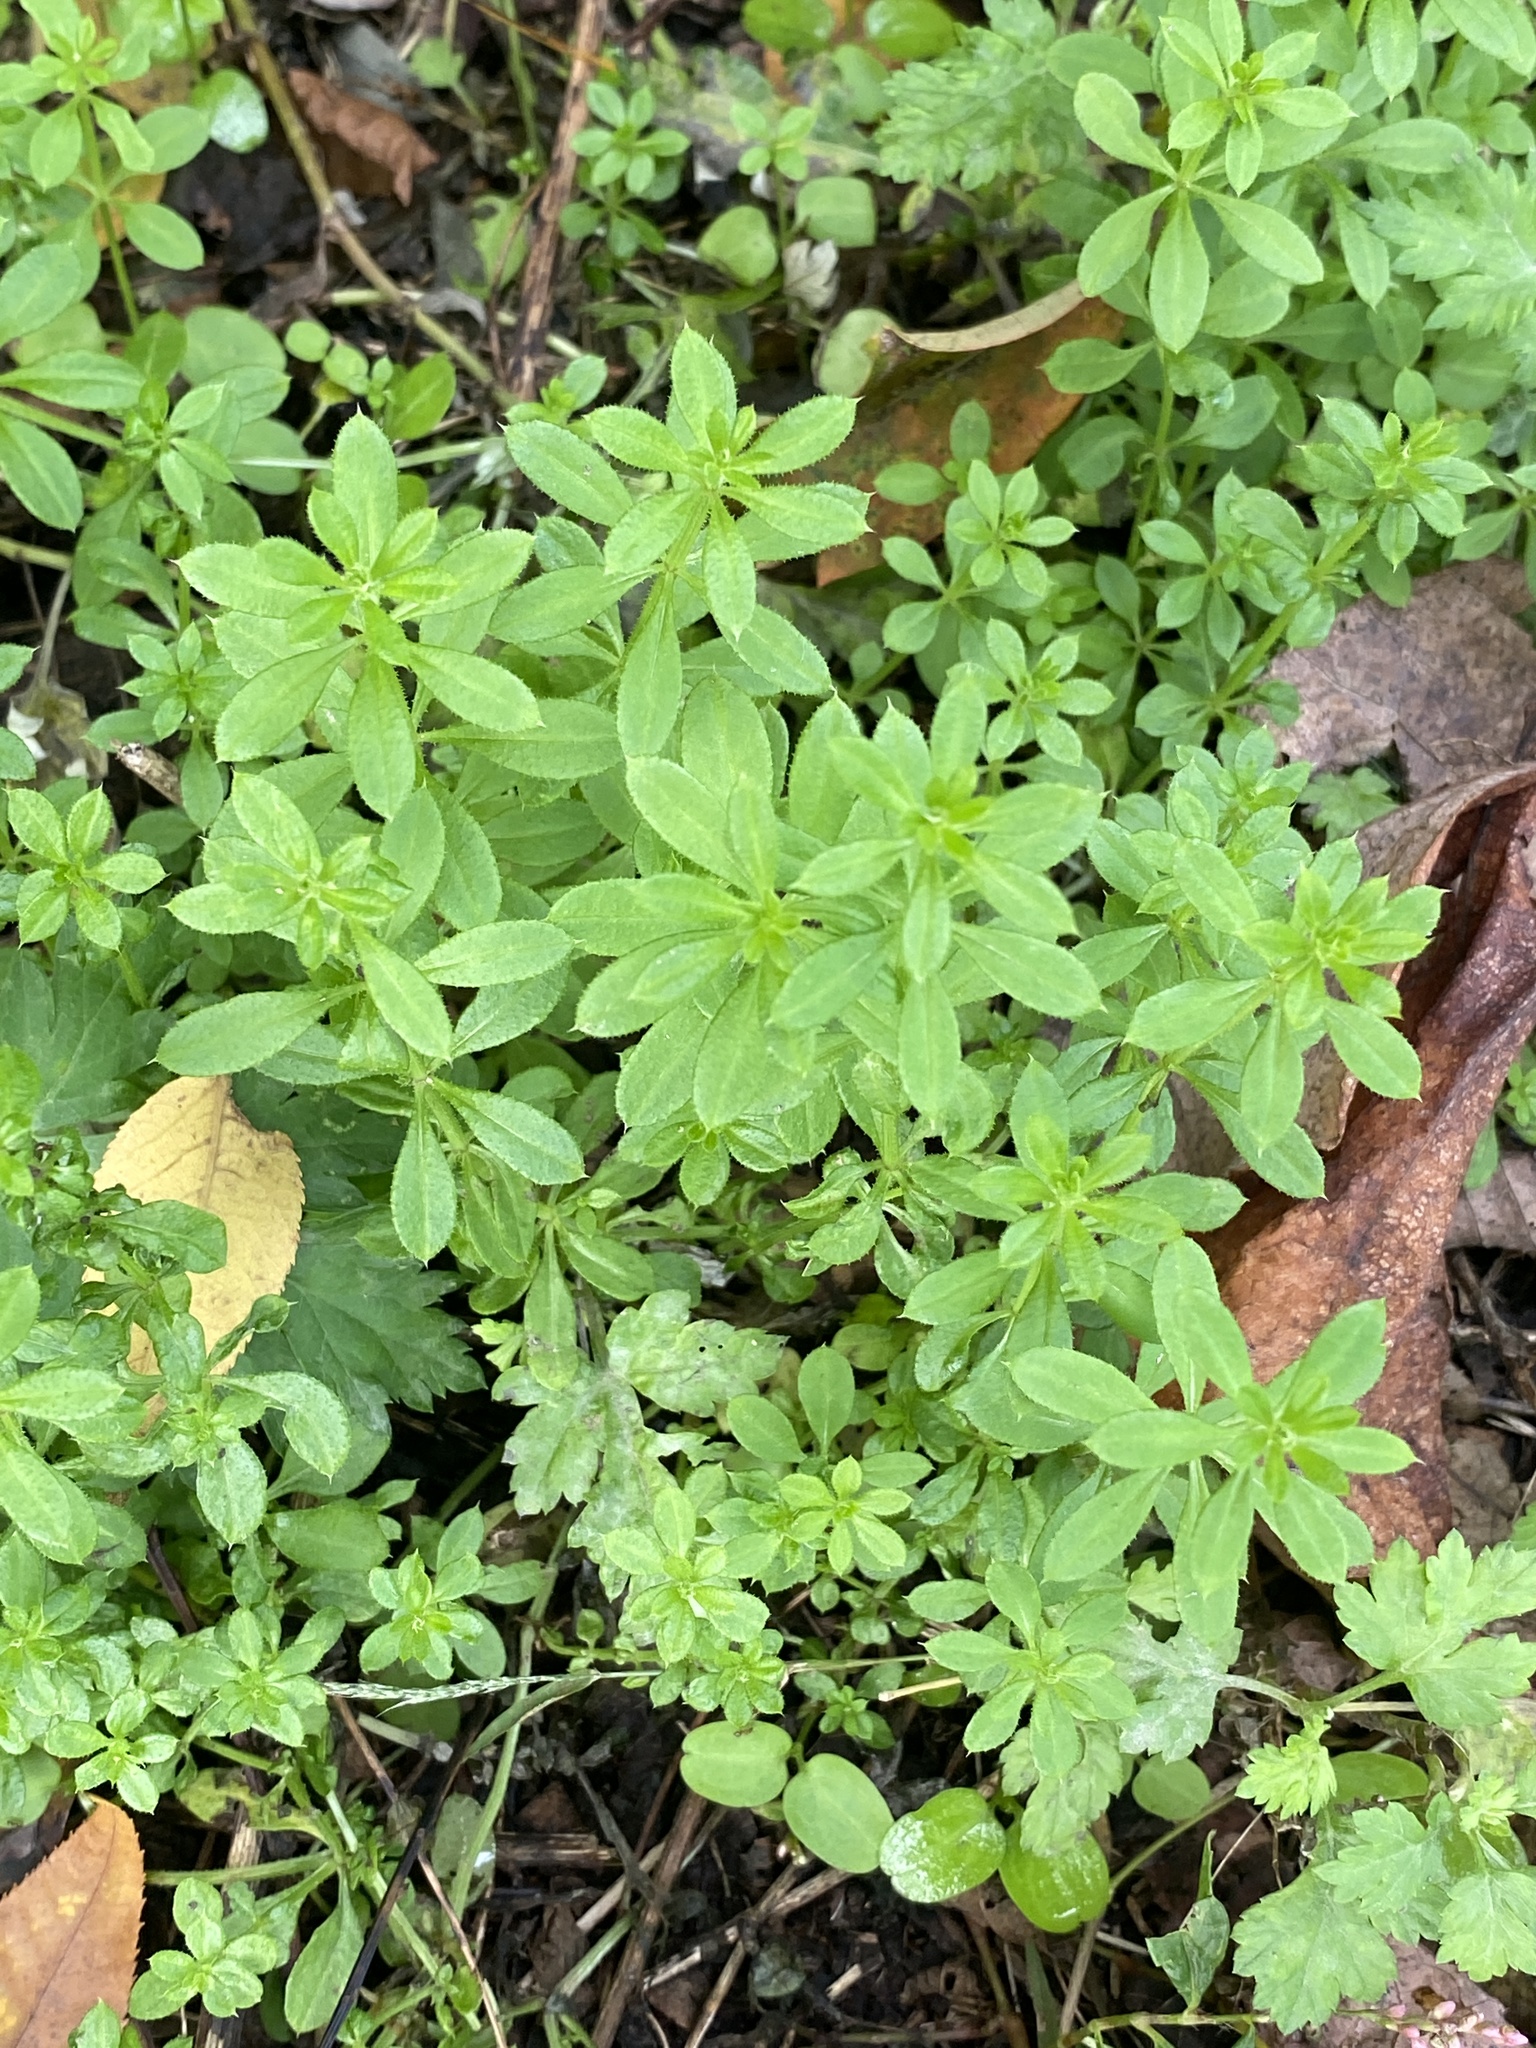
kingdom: Plantae
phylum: Tracheophyta
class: Magnoliopsida
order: Gentianales
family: Rubiaceae
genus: Galium
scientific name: Galium aparine
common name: Cleavers
